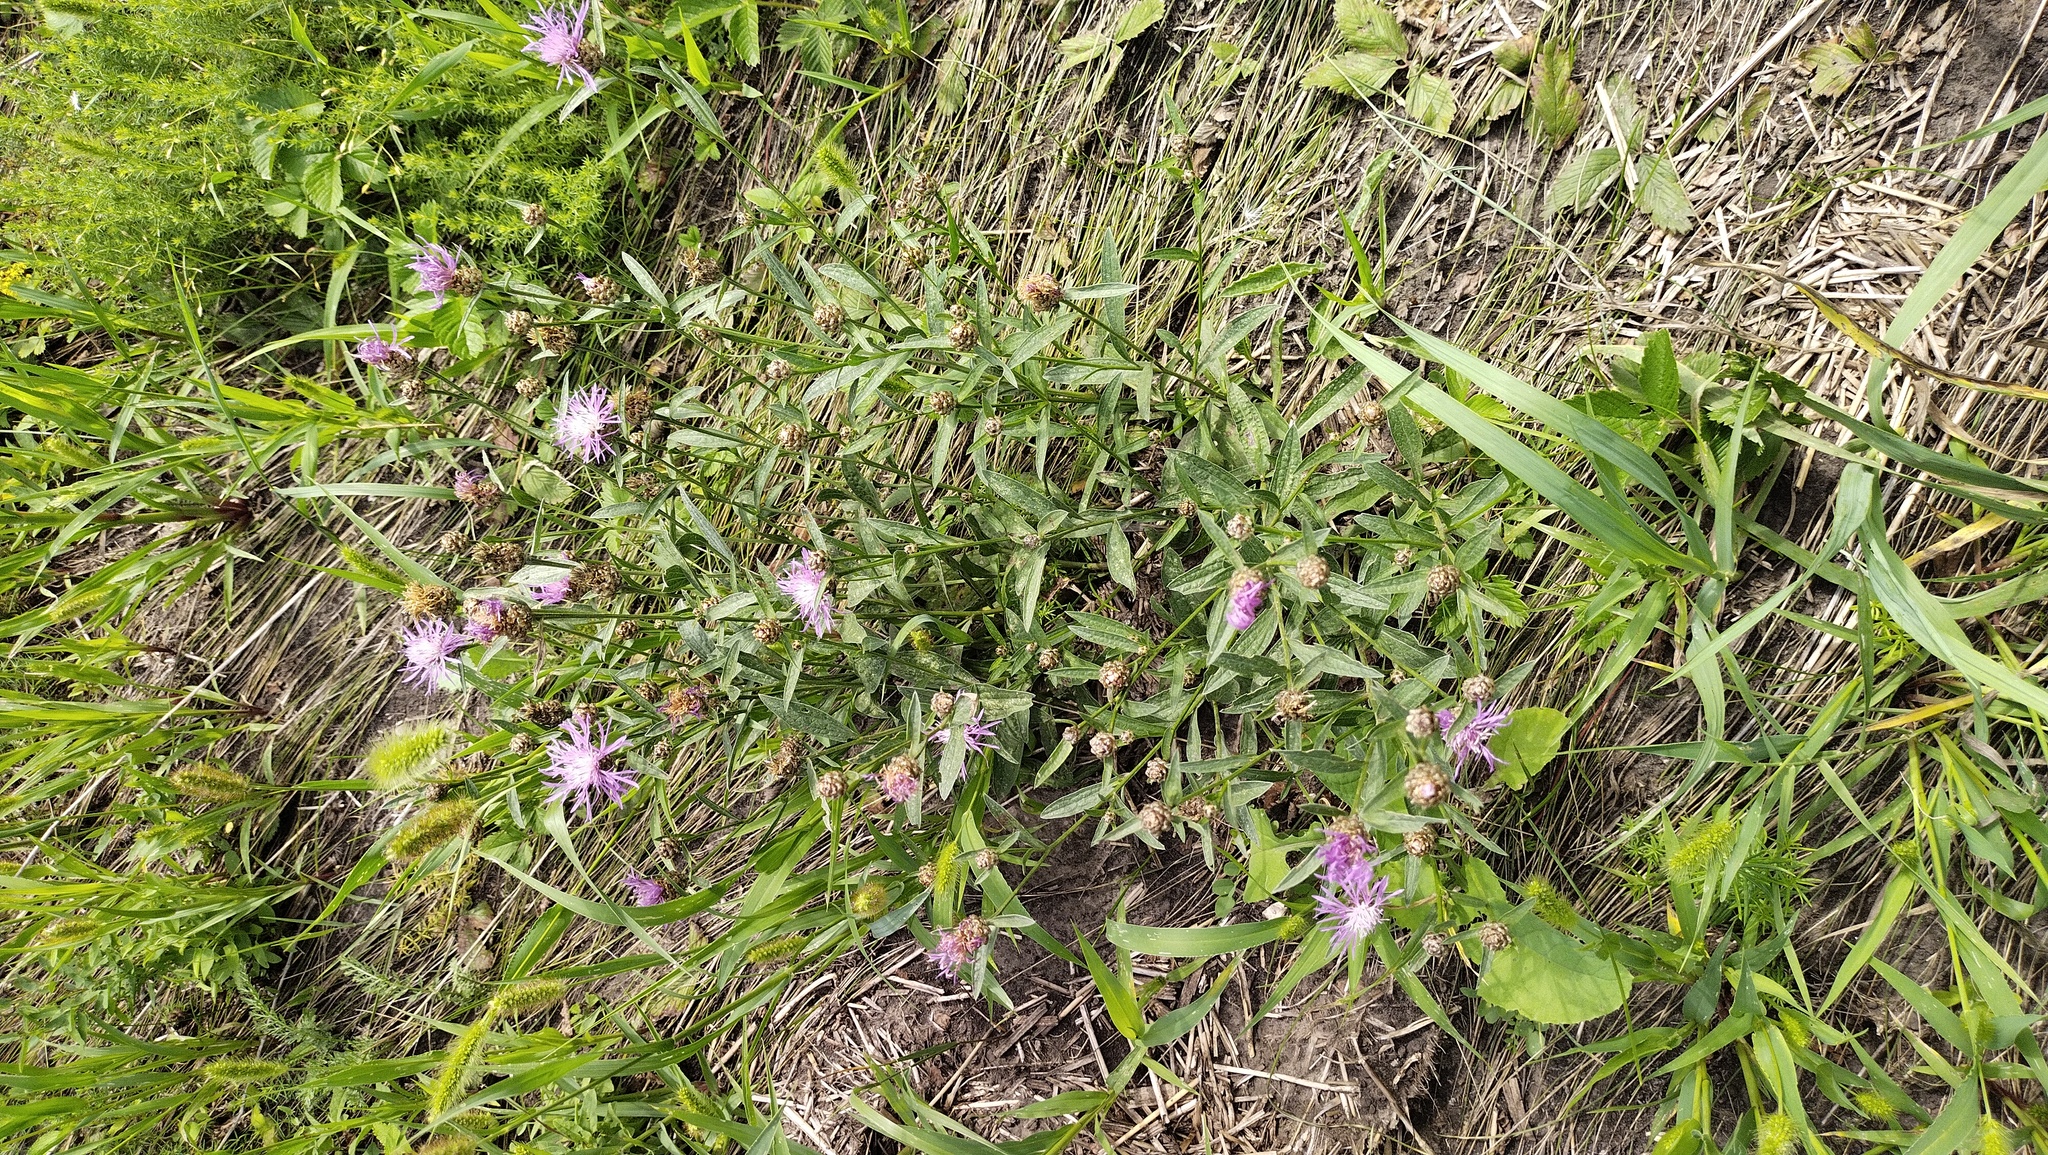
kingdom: Plantae
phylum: Tracheophyta
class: Magnoliopsida
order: Asterales
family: Asteraceae
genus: Centaurea
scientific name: Centaurea jacea
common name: Brown knapweed
